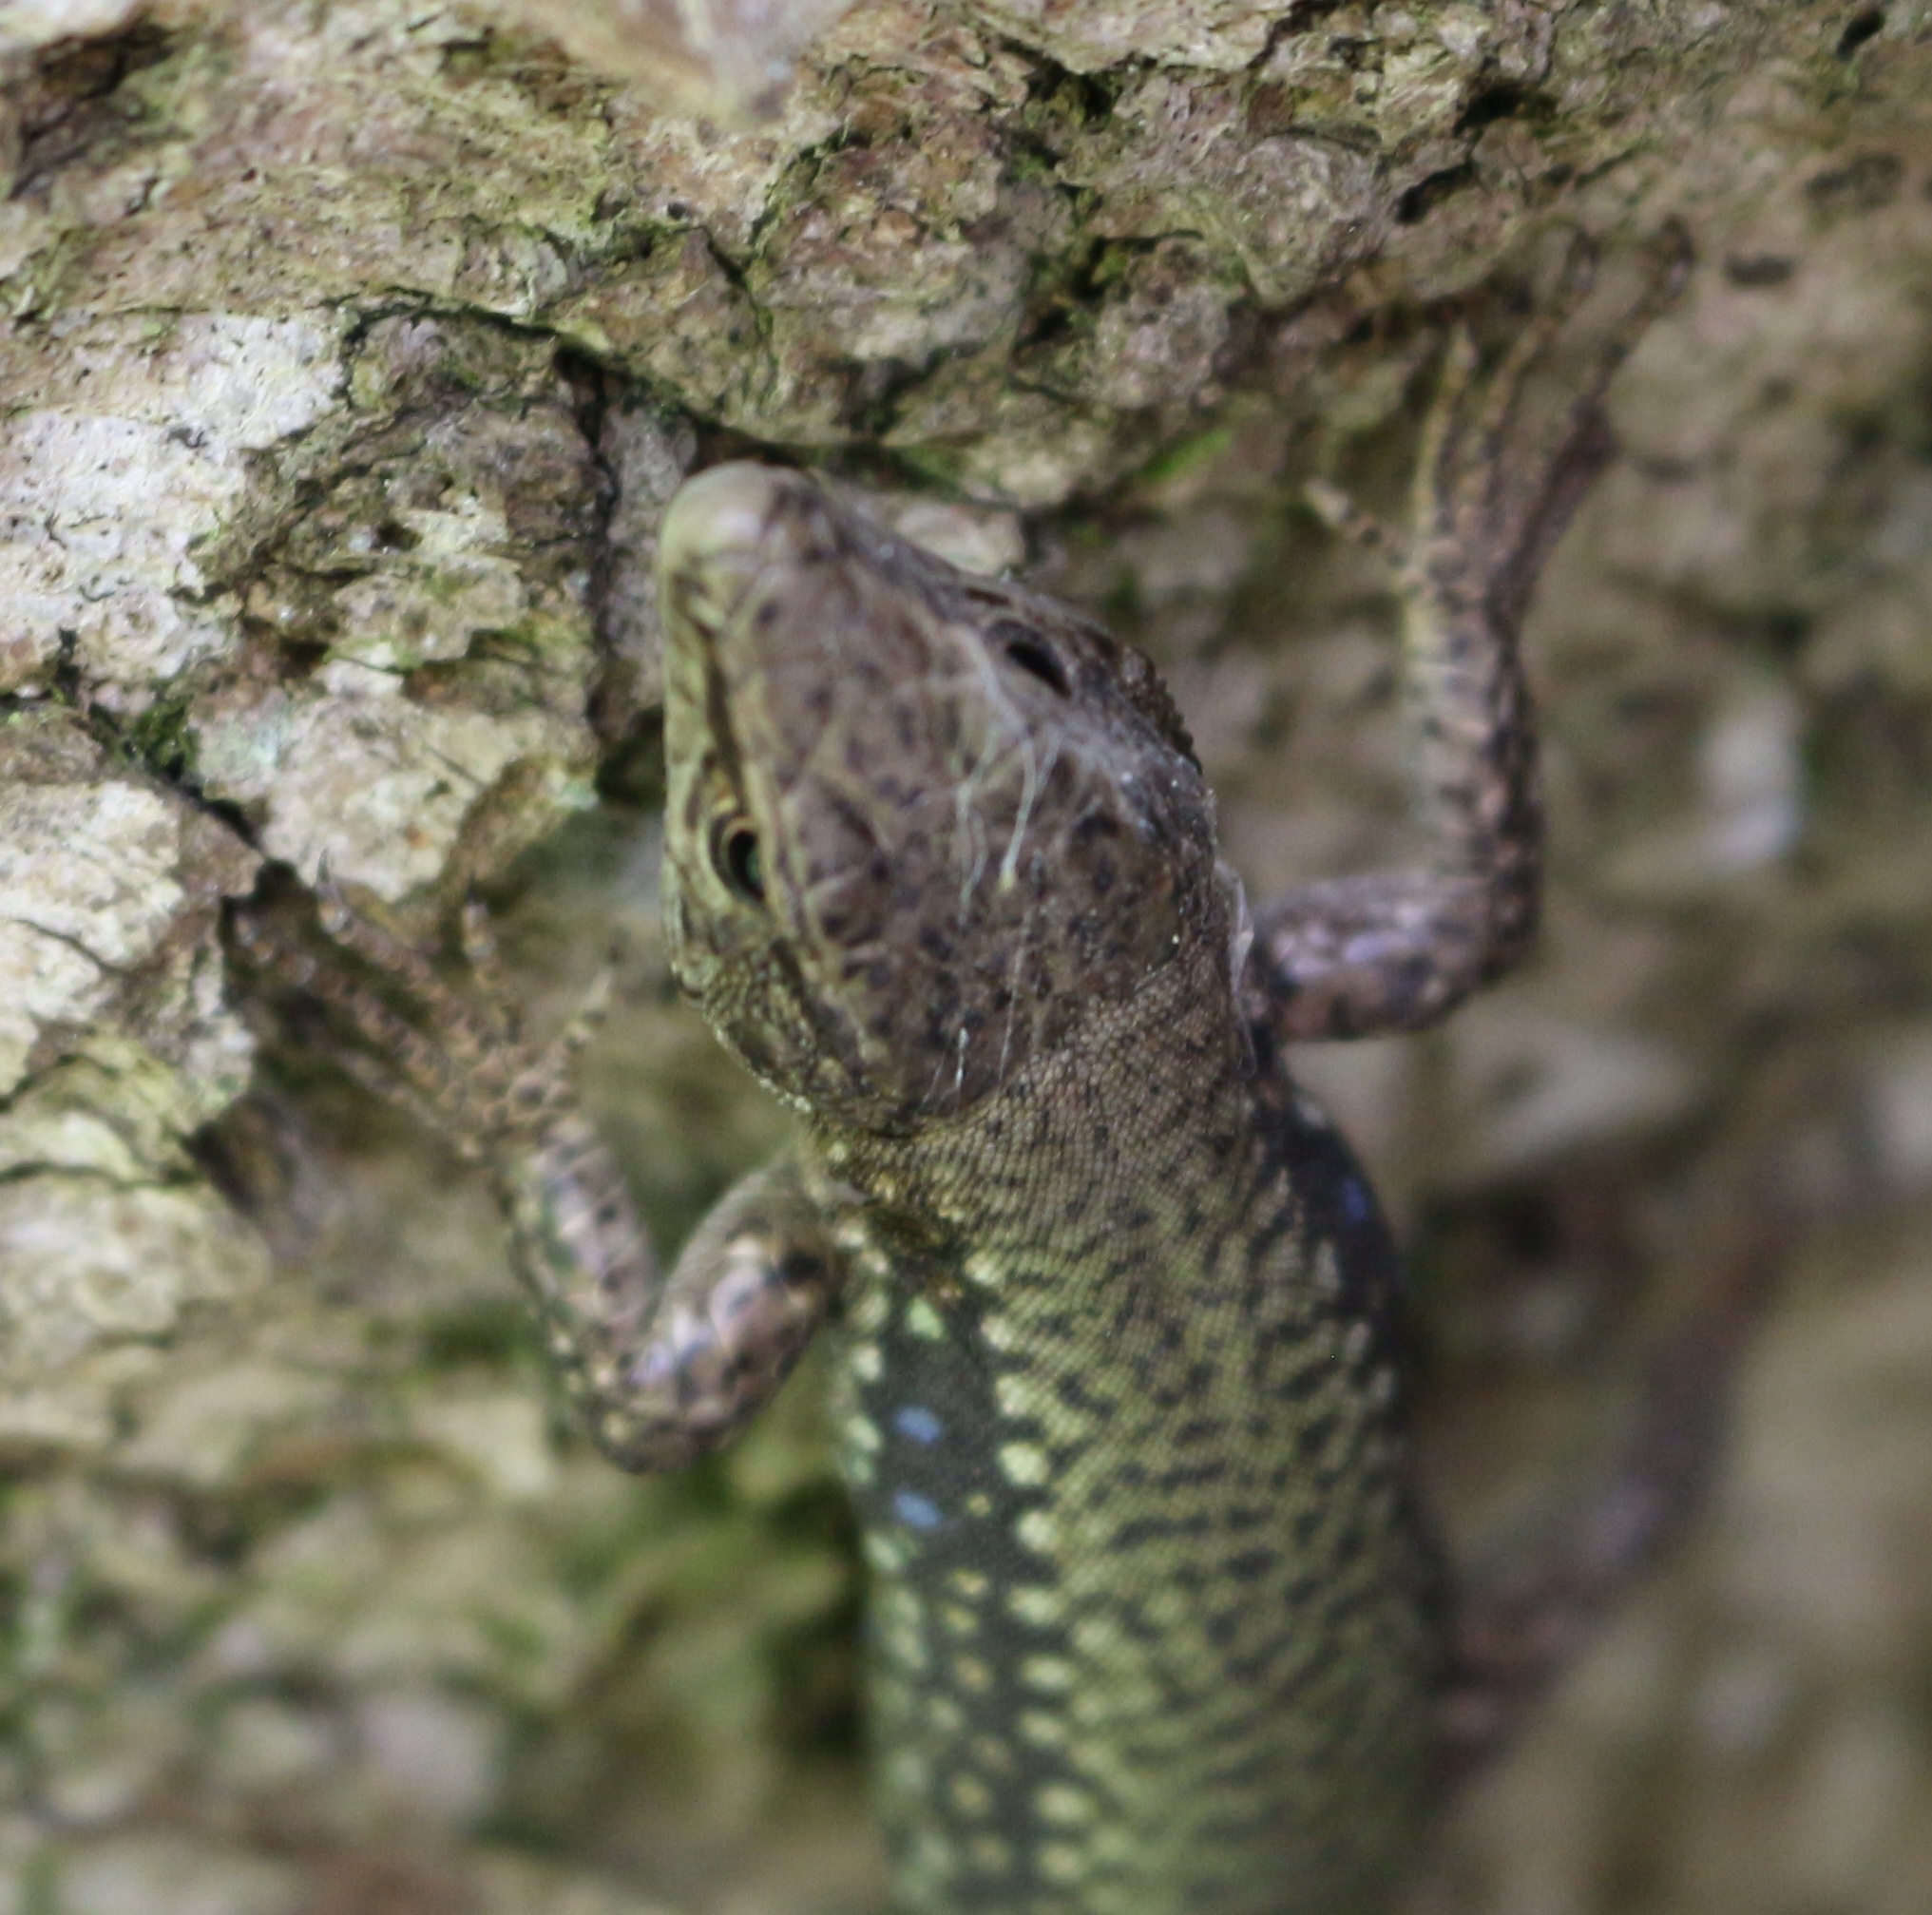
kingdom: Animalia
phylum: Chordata
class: Squamata
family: Lacertidae
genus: Darevskia
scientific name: Darevskia brauneri
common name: Brauner's rock lizard
